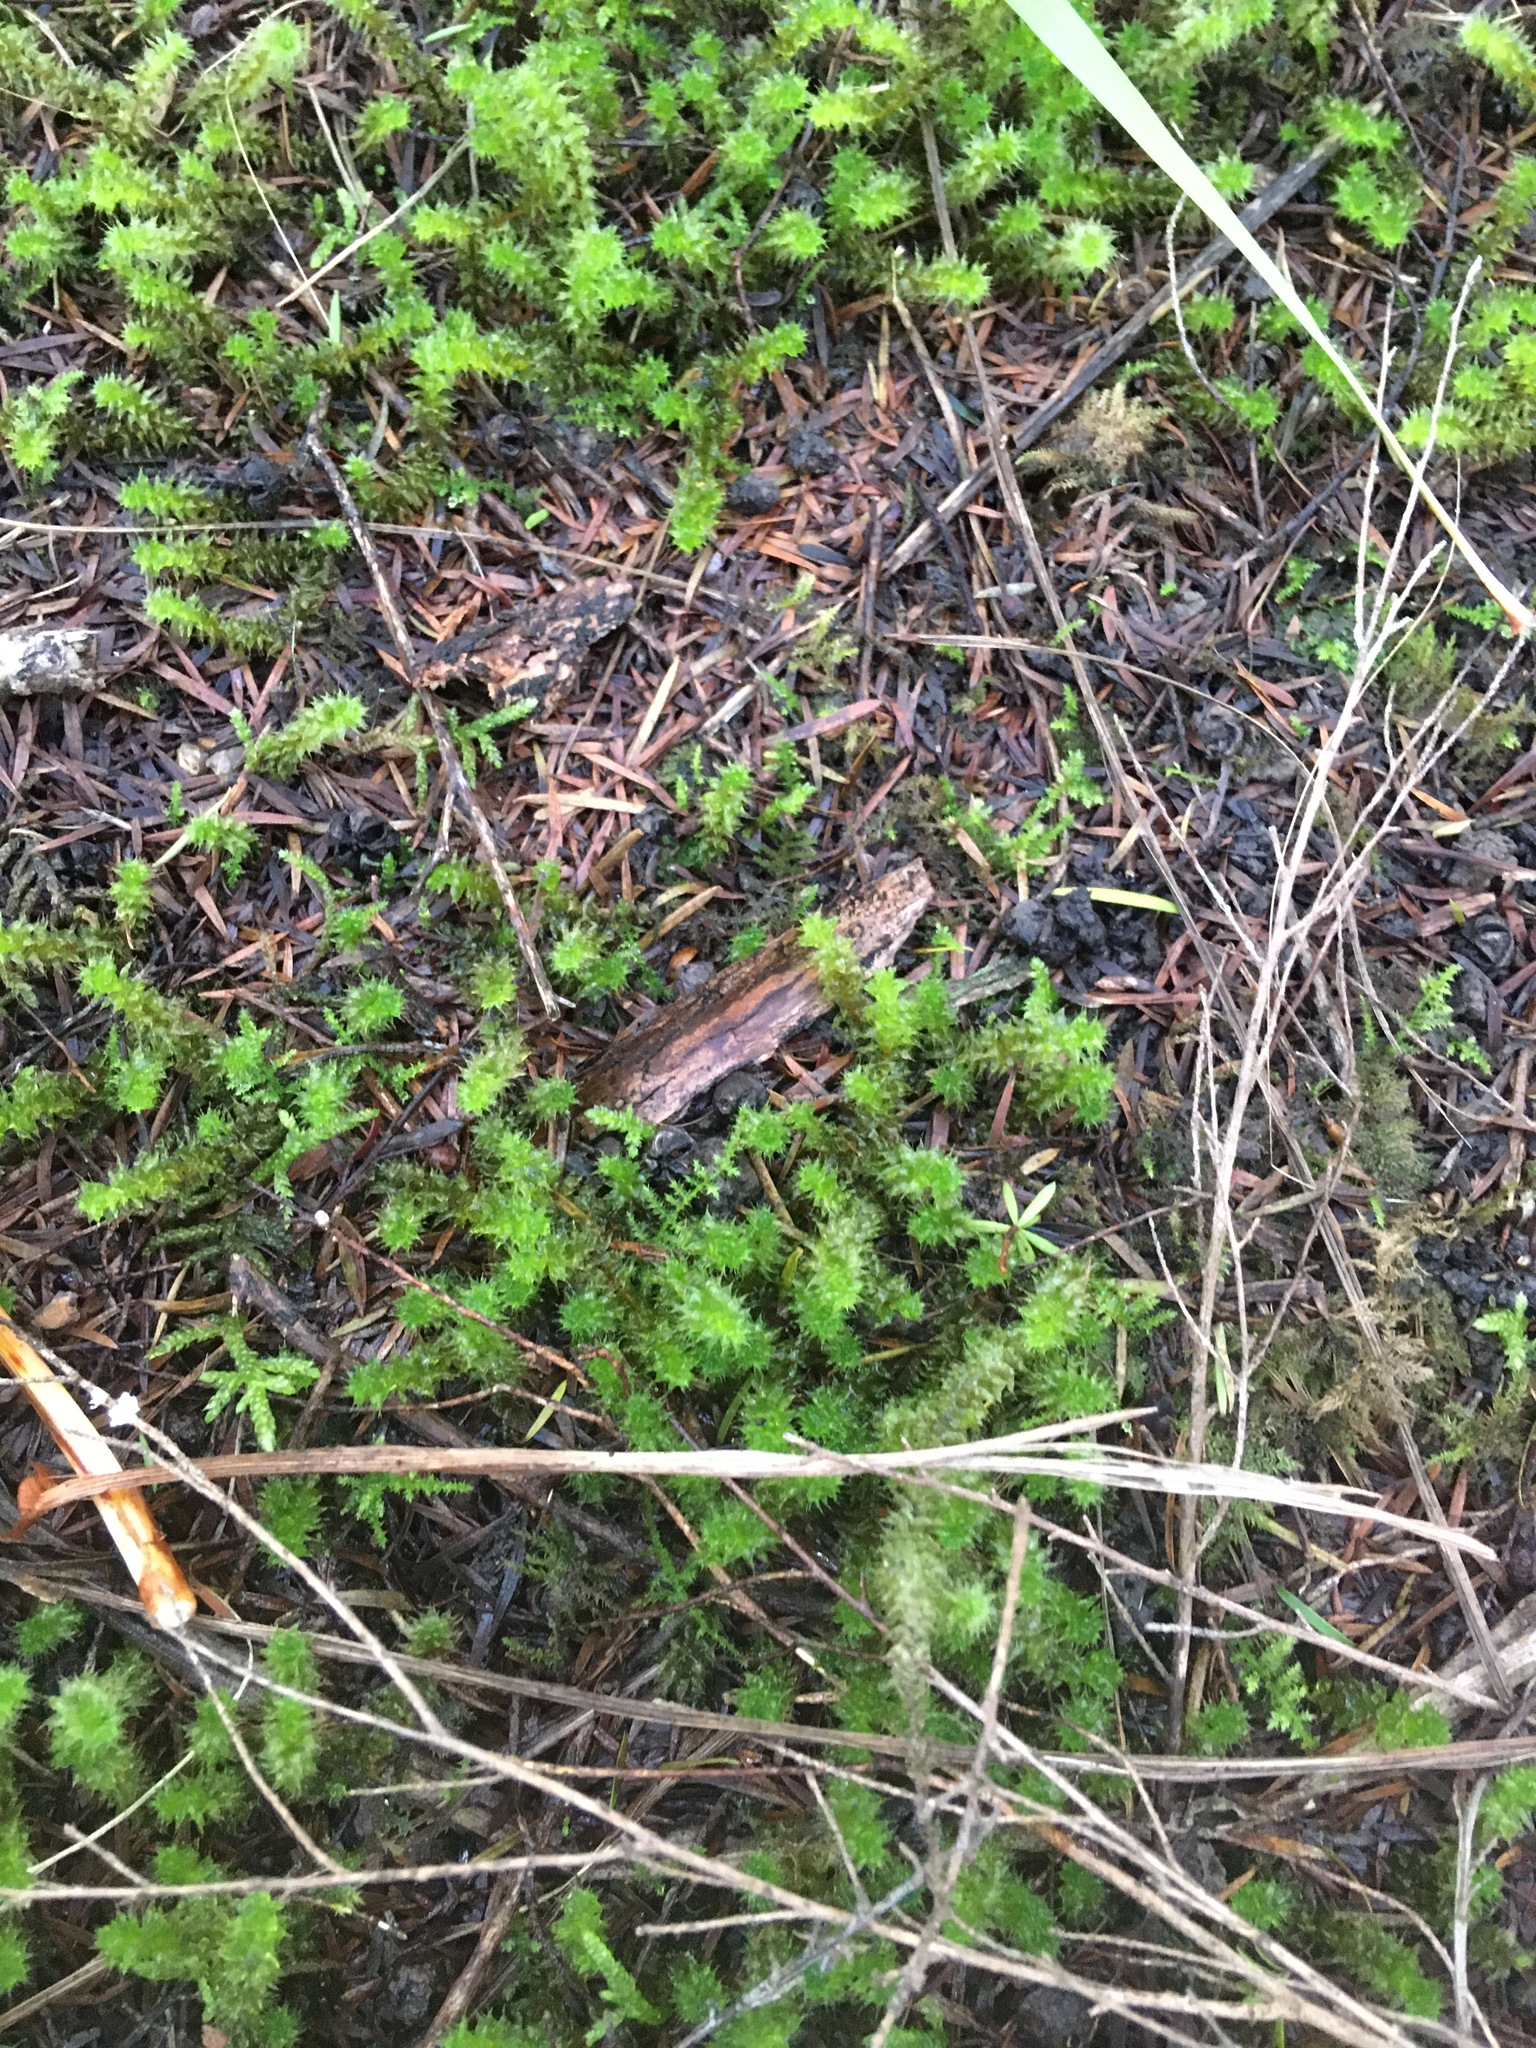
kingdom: Plantae
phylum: Bryophyta
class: Bryopsida
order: Ptychomniales
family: Ptychomniaceae
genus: Ptychomnion
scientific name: Ptychomnion aciculare
